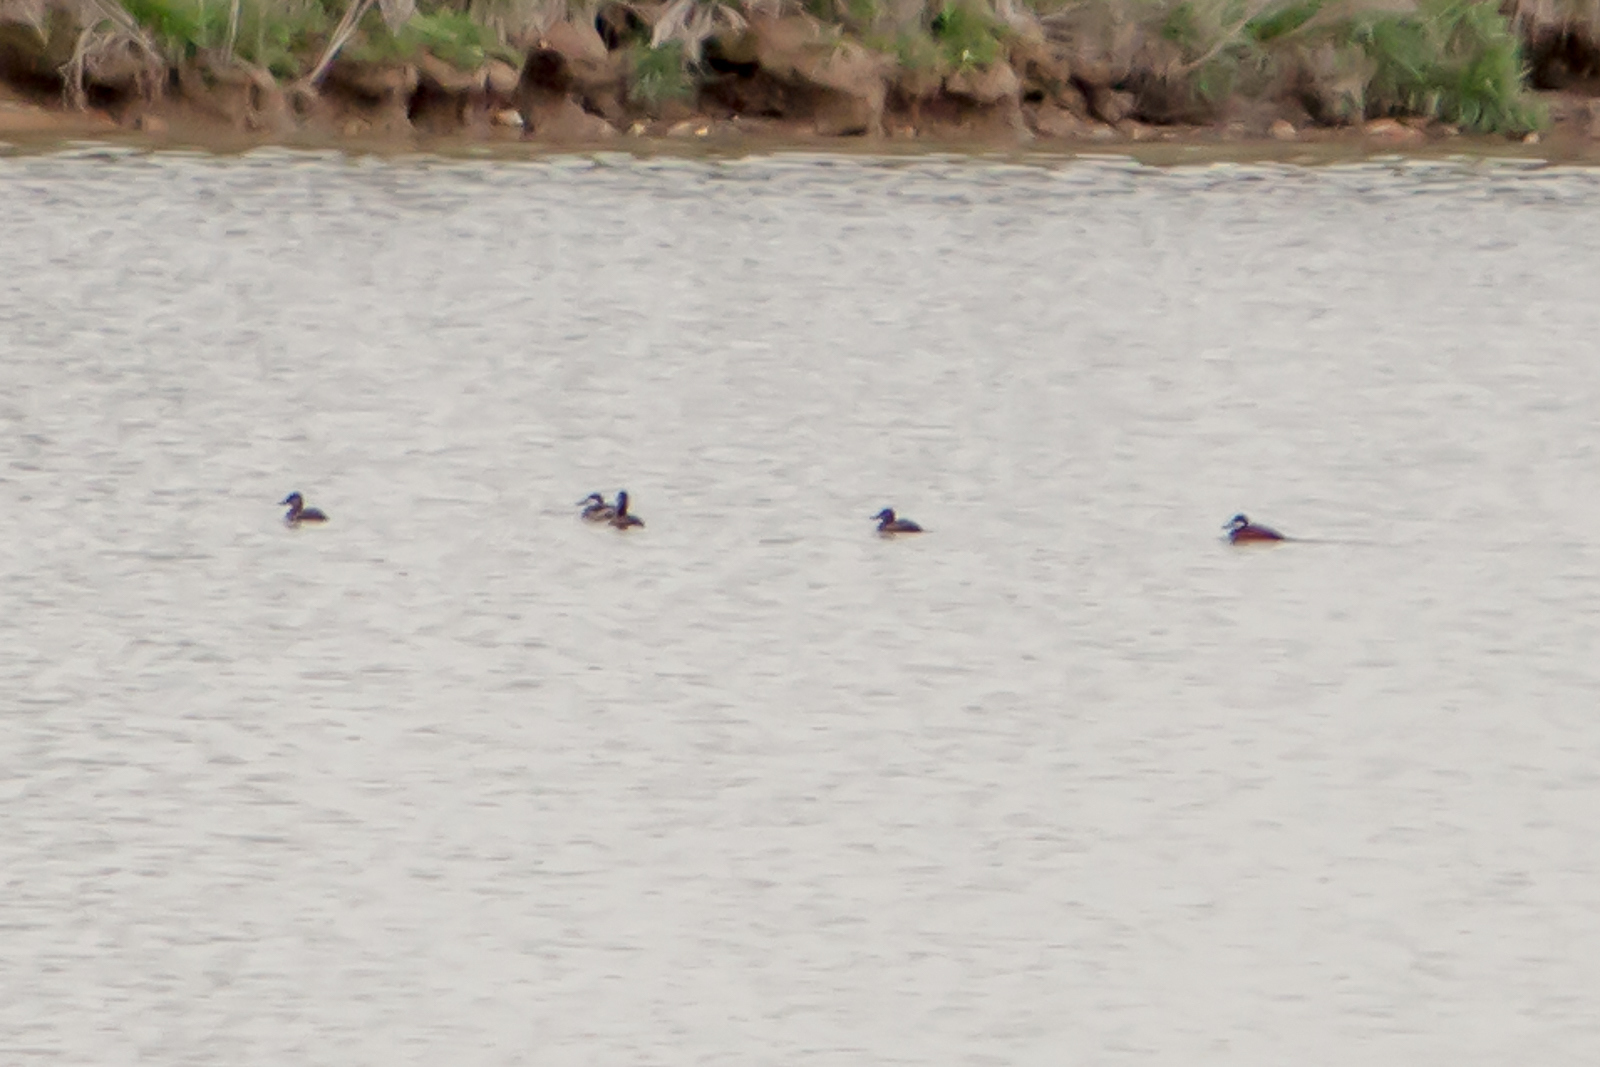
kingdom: Animalia
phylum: Chordata
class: Aves
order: Anseriformes
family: Anatidae
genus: Oxyura
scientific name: Oxyura jamaicensis
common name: Ruddy duck
